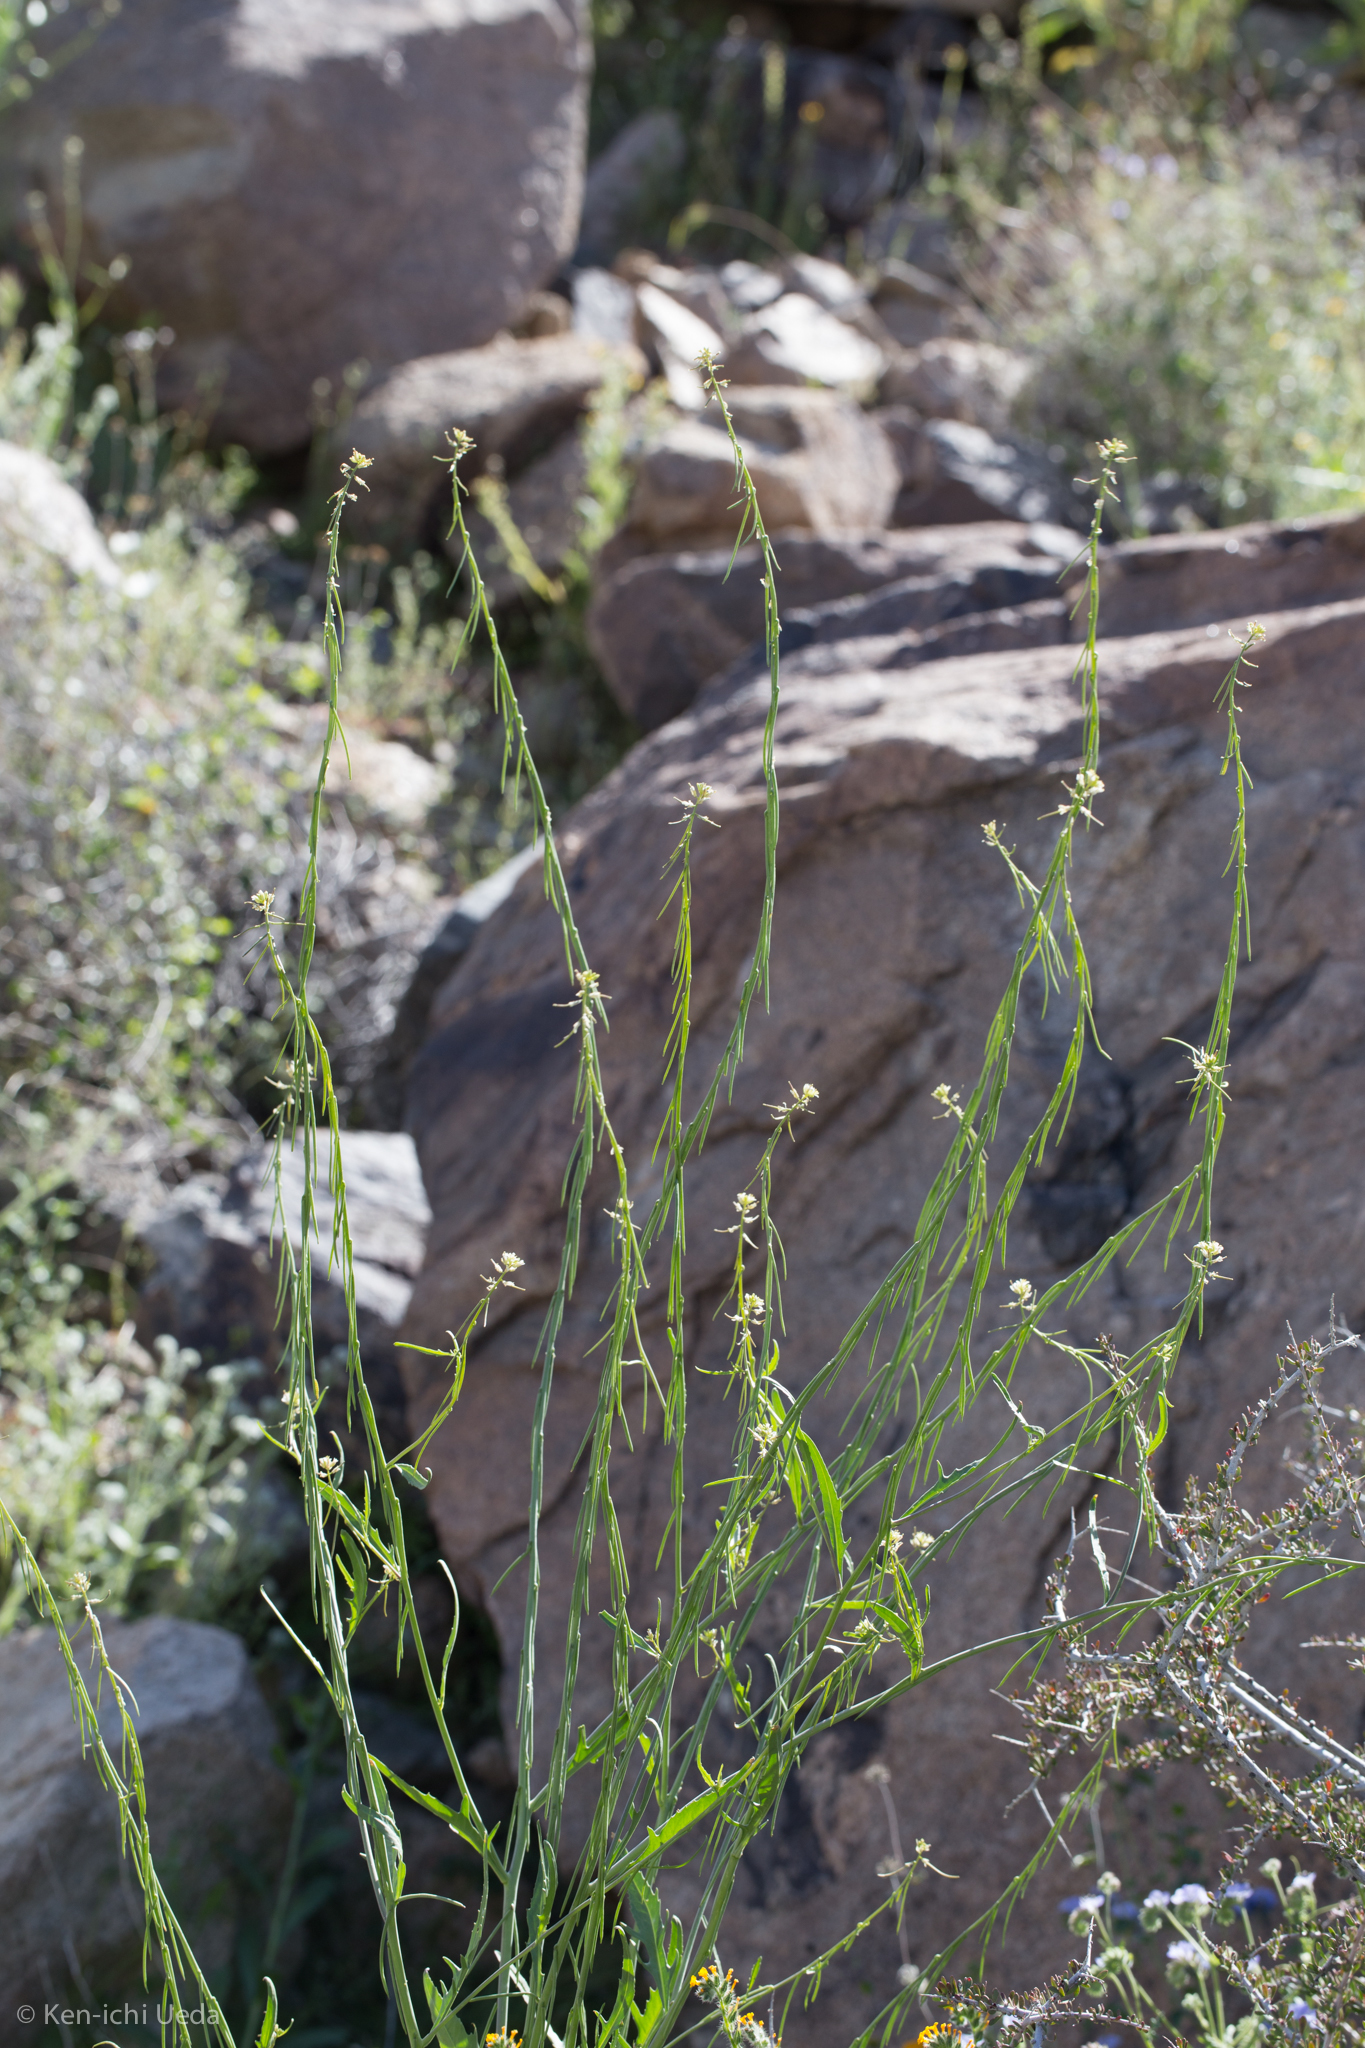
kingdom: Plantae
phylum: Tracheophyta
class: Magnoliopsida
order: Brassicales
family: Brassicaceae
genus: Streptanthus
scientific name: Streptanthus lasiophyllus
